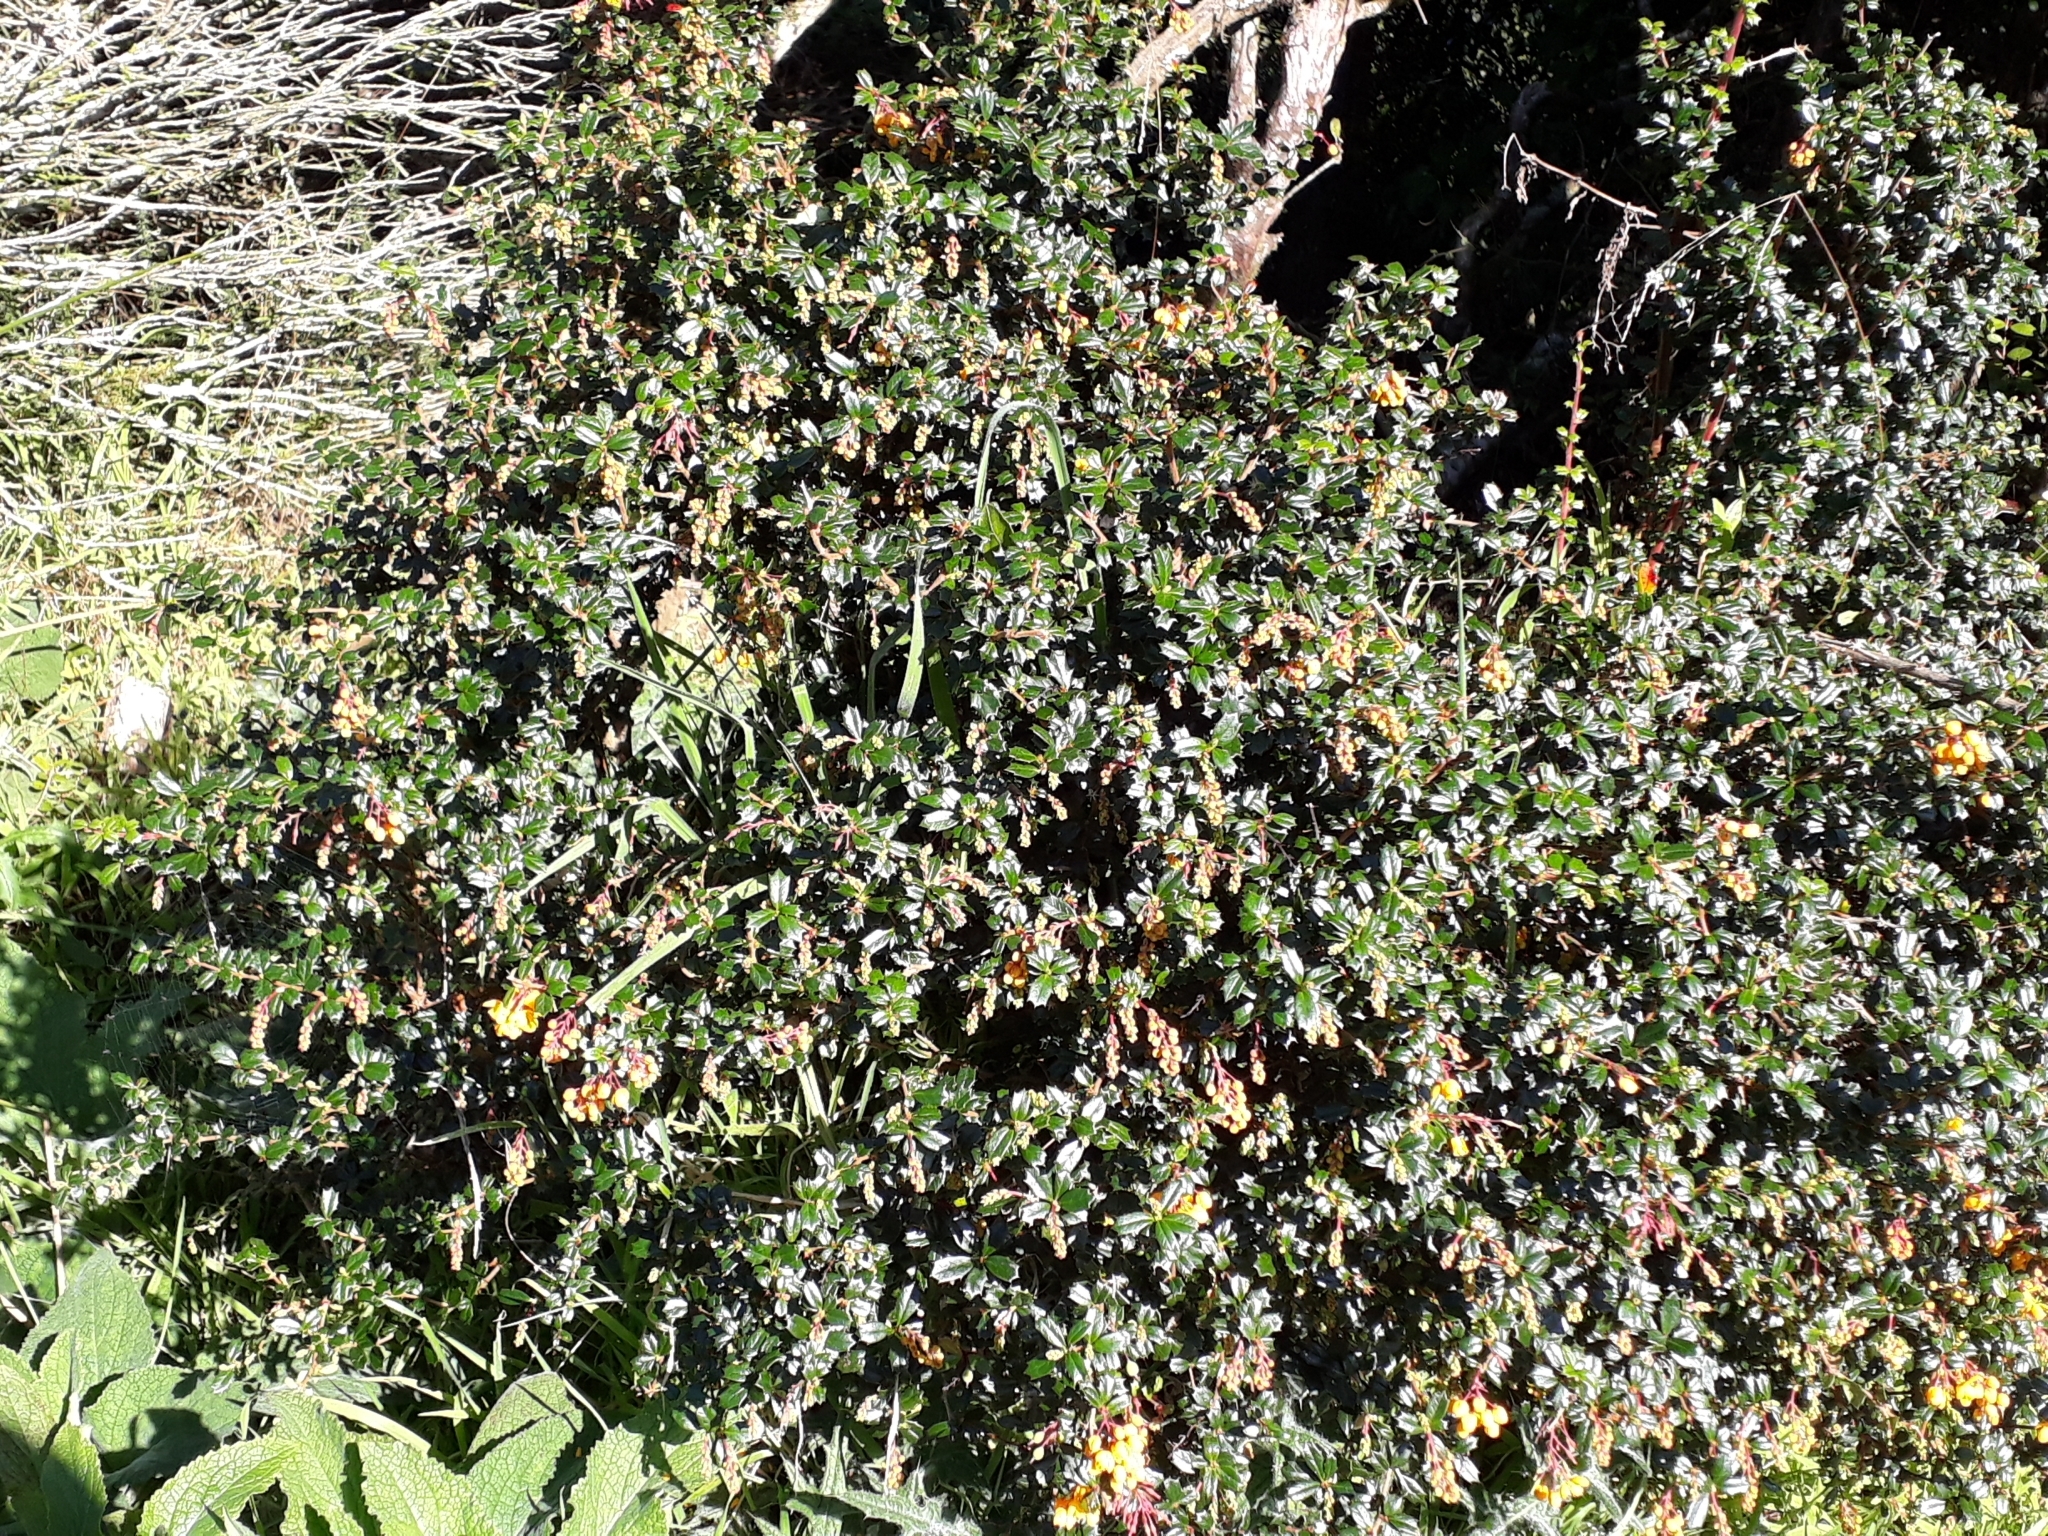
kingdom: Plantae
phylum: Tracheophyta
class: Magnoliopsida
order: Ranunculales
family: Berberidaceae
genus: Berberis
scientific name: Berberis darwinii
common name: Darwin's barberry
